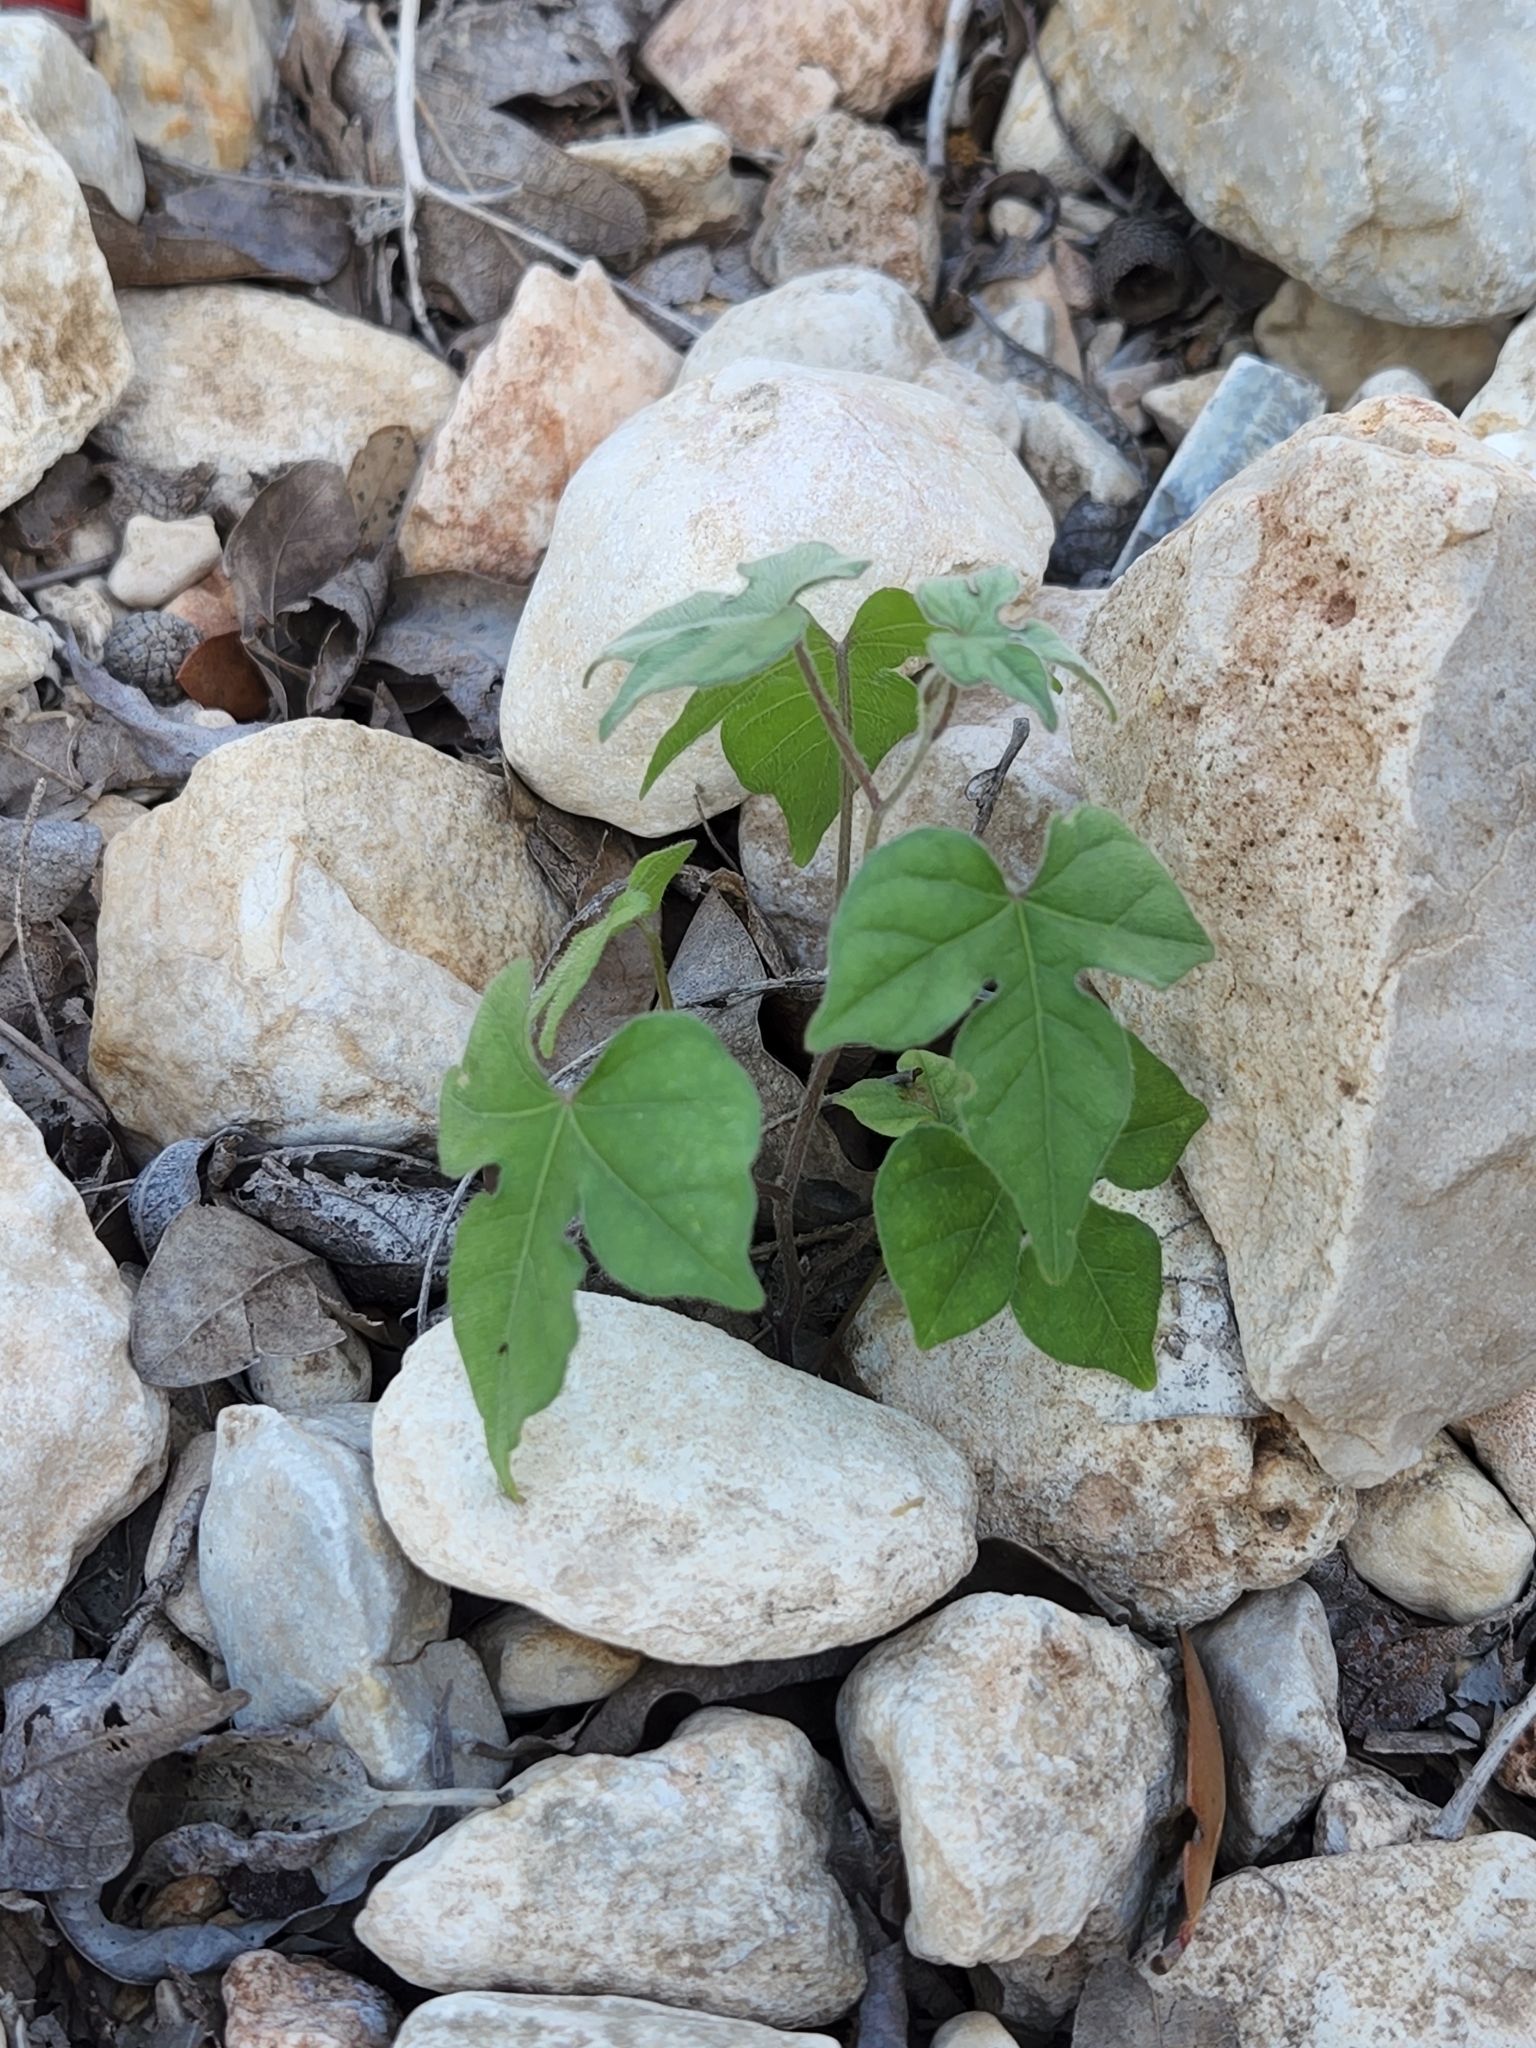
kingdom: Plantae
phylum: Tracheophyta
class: Magnoliopsida
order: Solanales
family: Convolvulaceae
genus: Ipomoea
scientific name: Ipomoea lindheimeri
